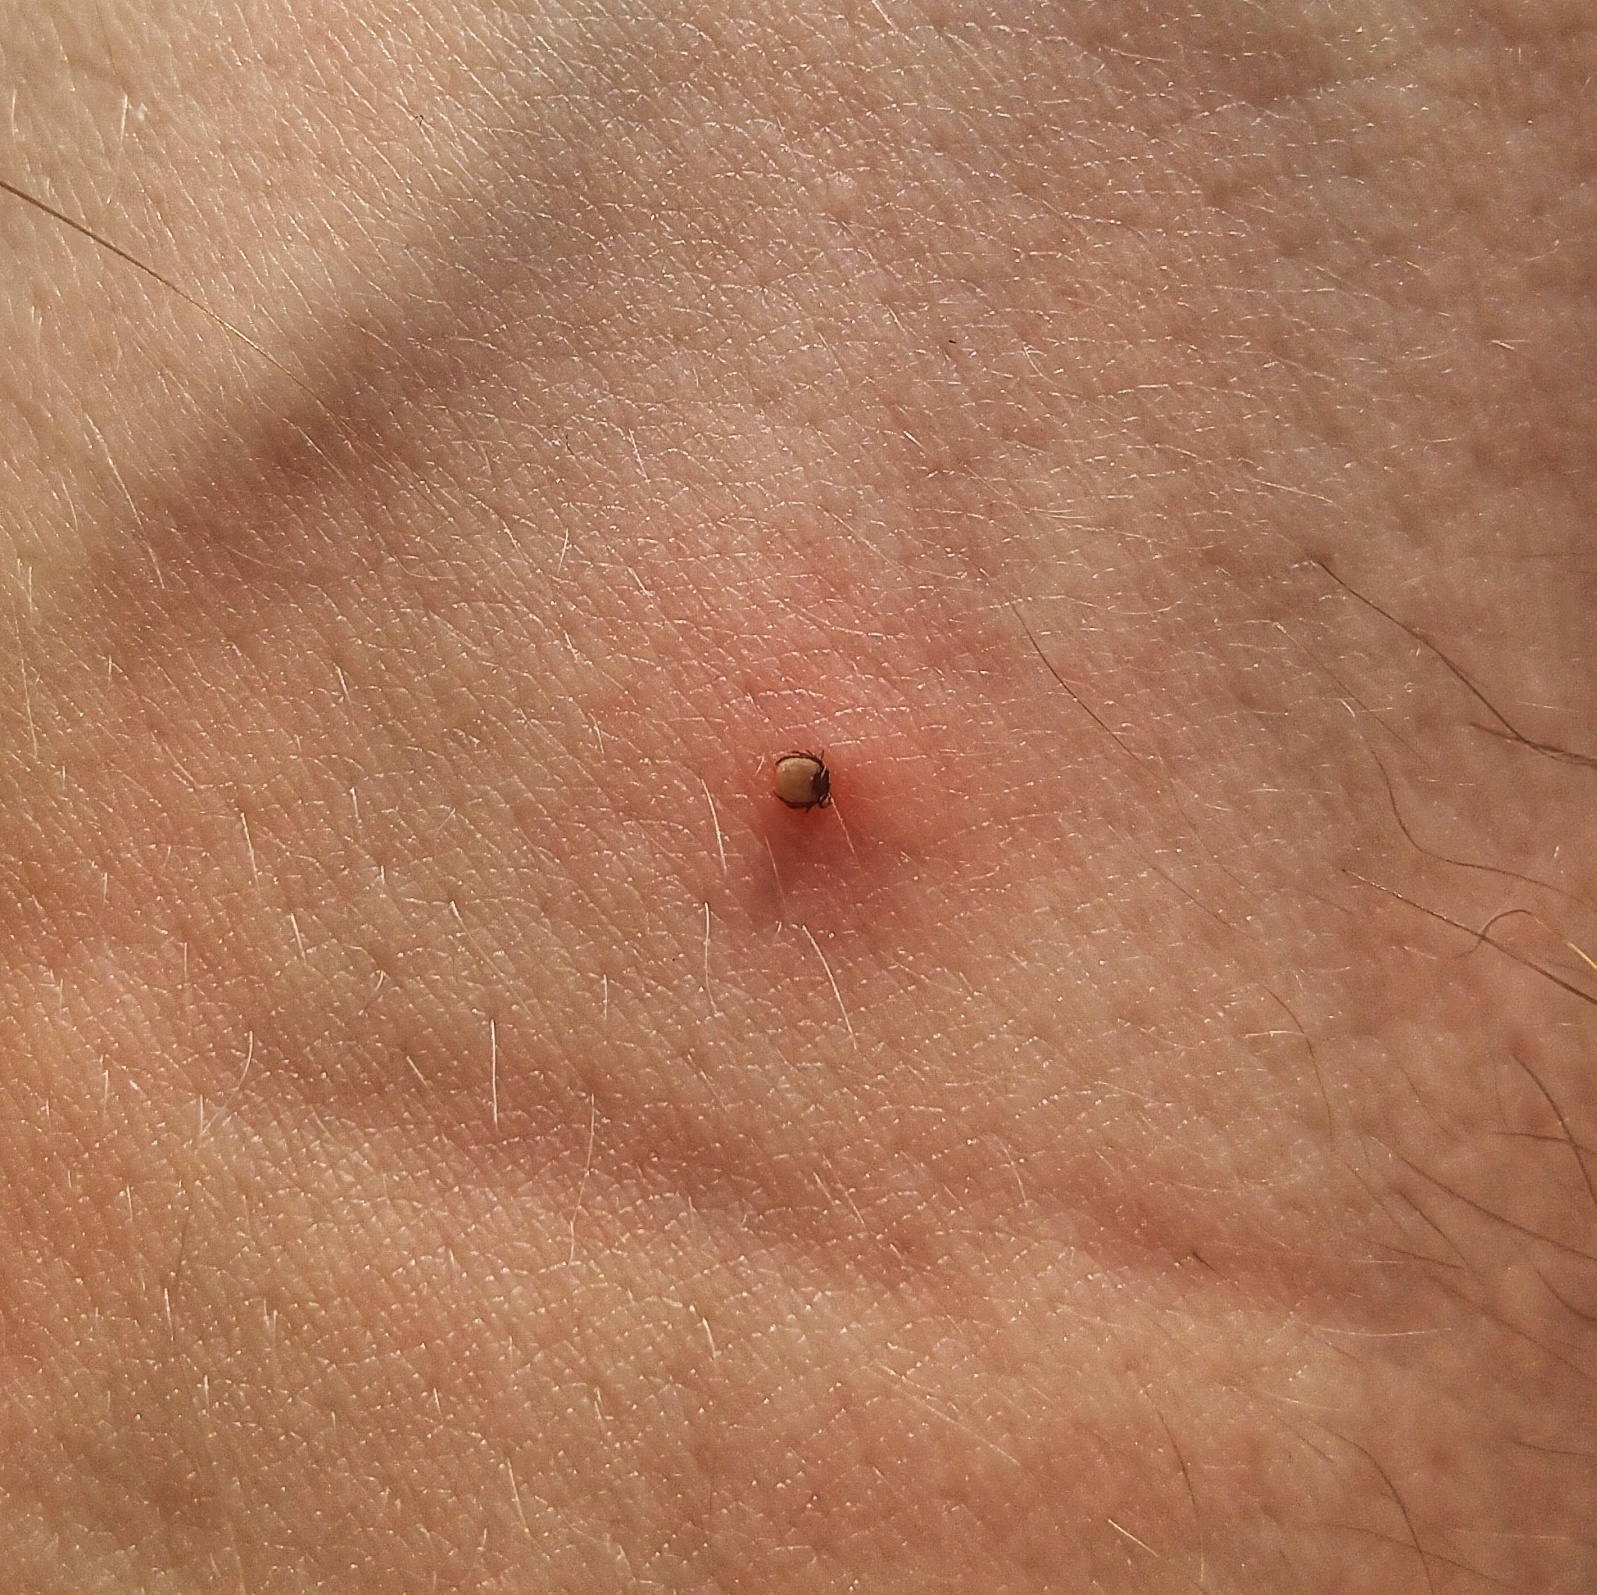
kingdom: Animalia
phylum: Arthropoda
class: Arachnida
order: Ixodida
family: Ixodidae
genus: Ixodes
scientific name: Ixodes ricinus
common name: Castor bean tick
